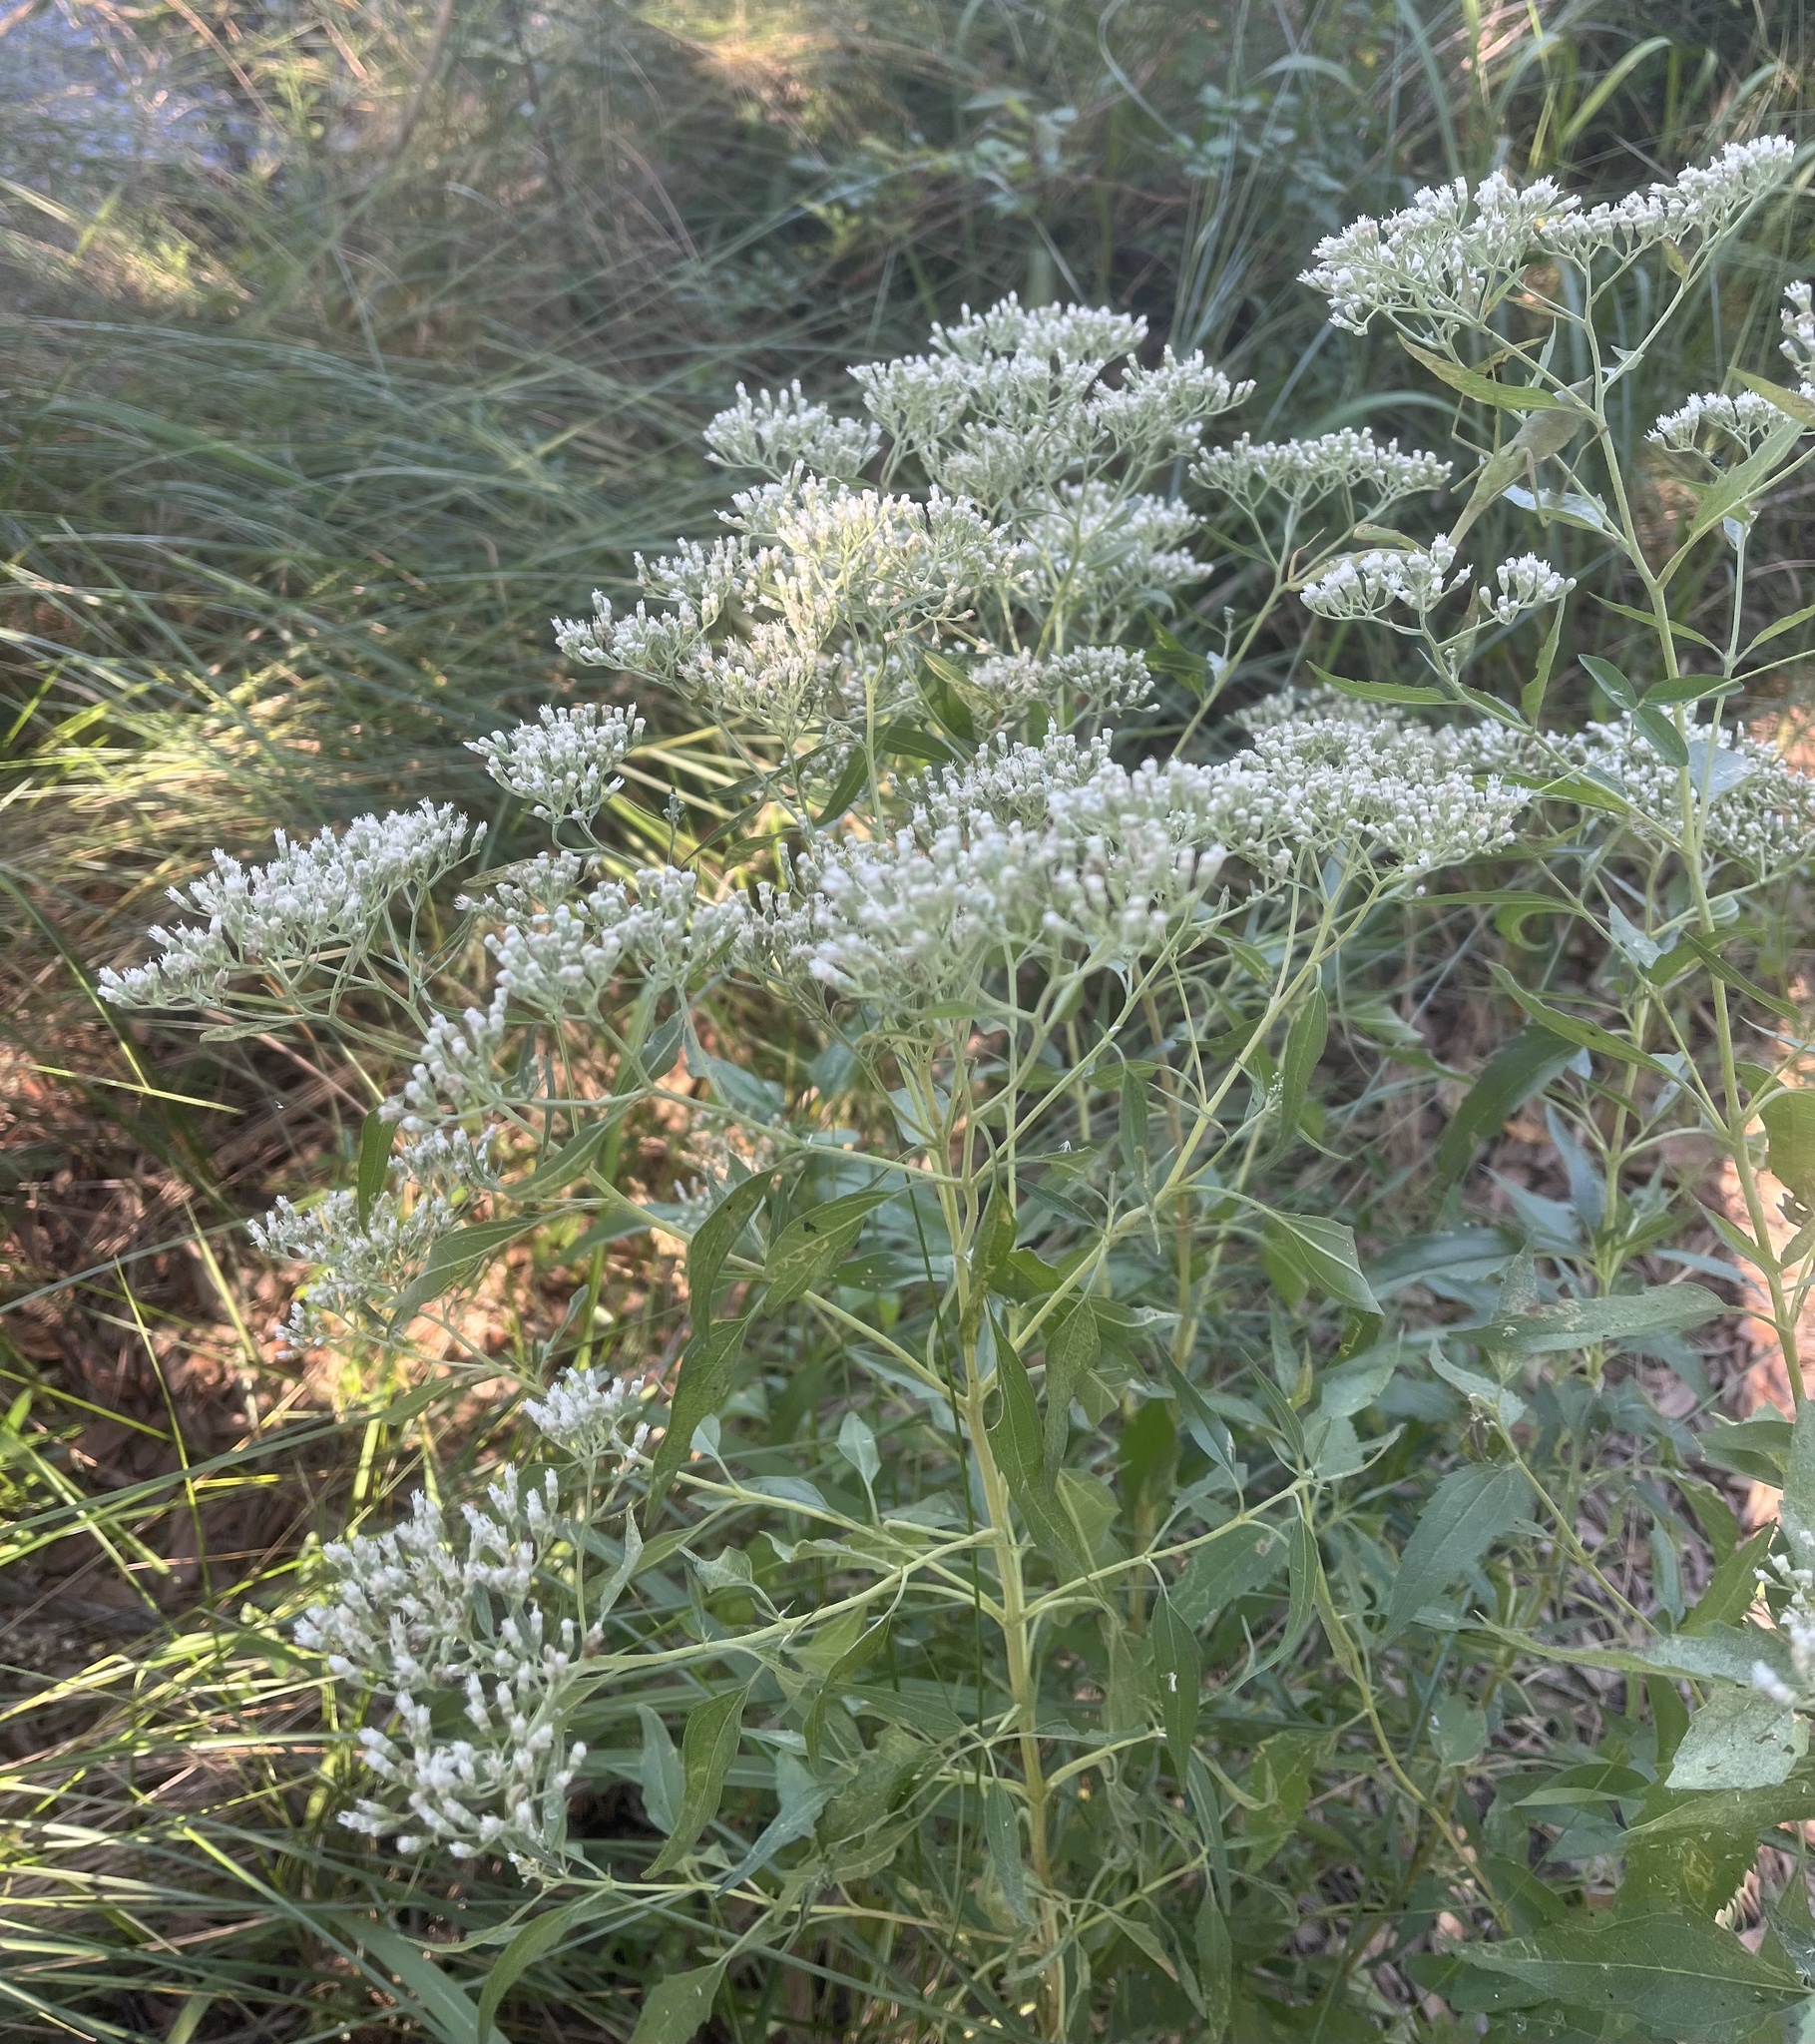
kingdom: Plantae
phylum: Tracheophyta
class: Magnoliopsida
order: Asterales
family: Asteraceae
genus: Eupatorium
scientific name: Eupatorium serotinum
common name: Late boneset
